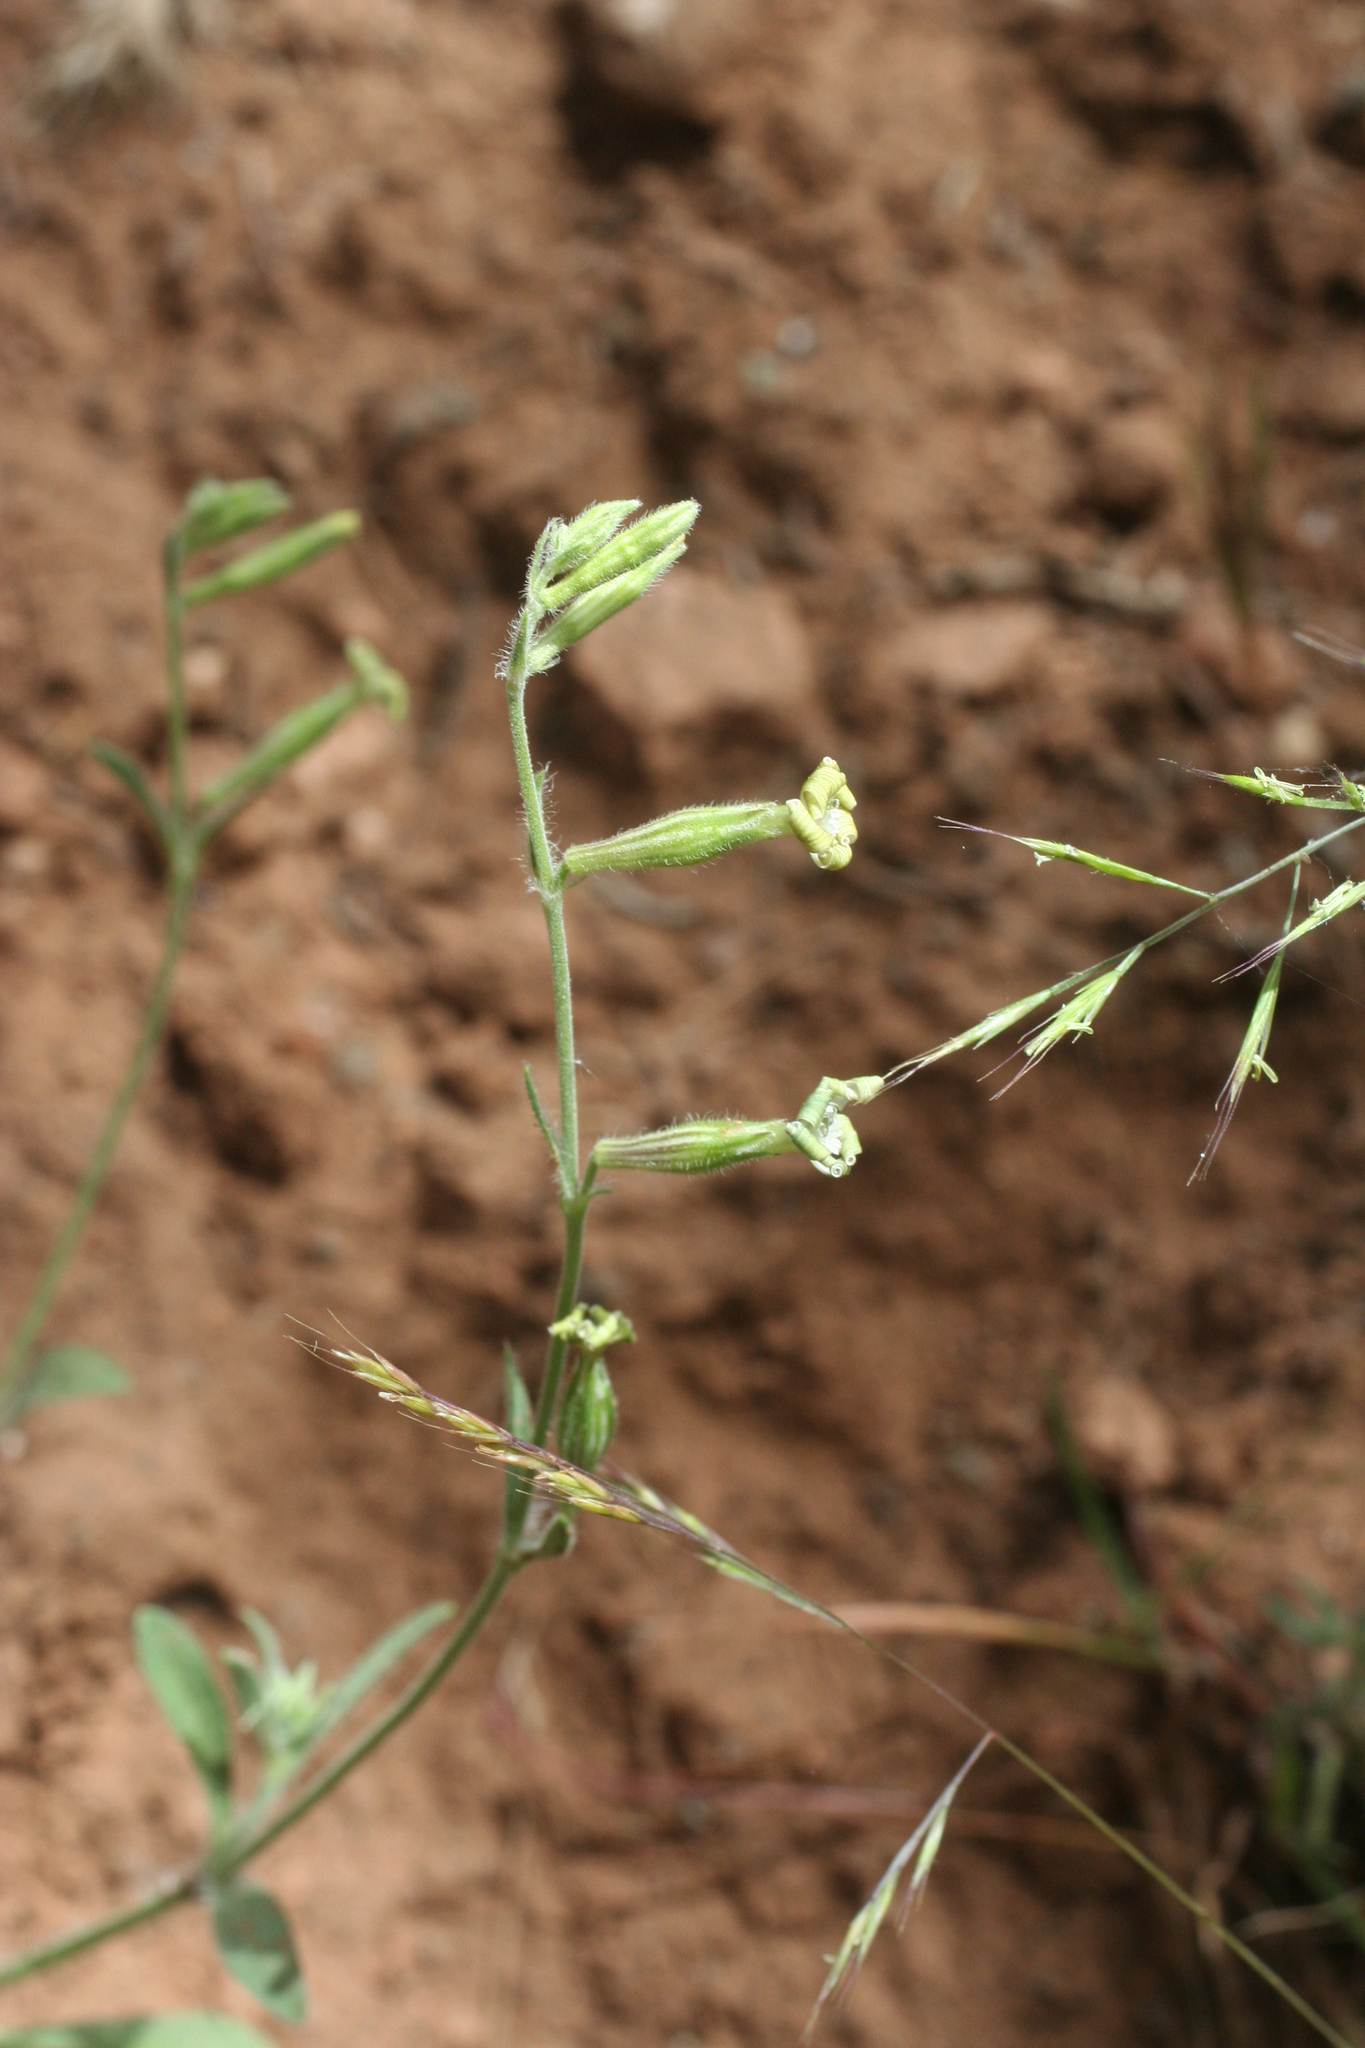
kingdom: Plantae
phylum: Tracheophyta
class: Magnoliopsida
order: Caryophyllales
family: Caryophyllaceae
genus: Silene
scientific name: Silene pomelii
